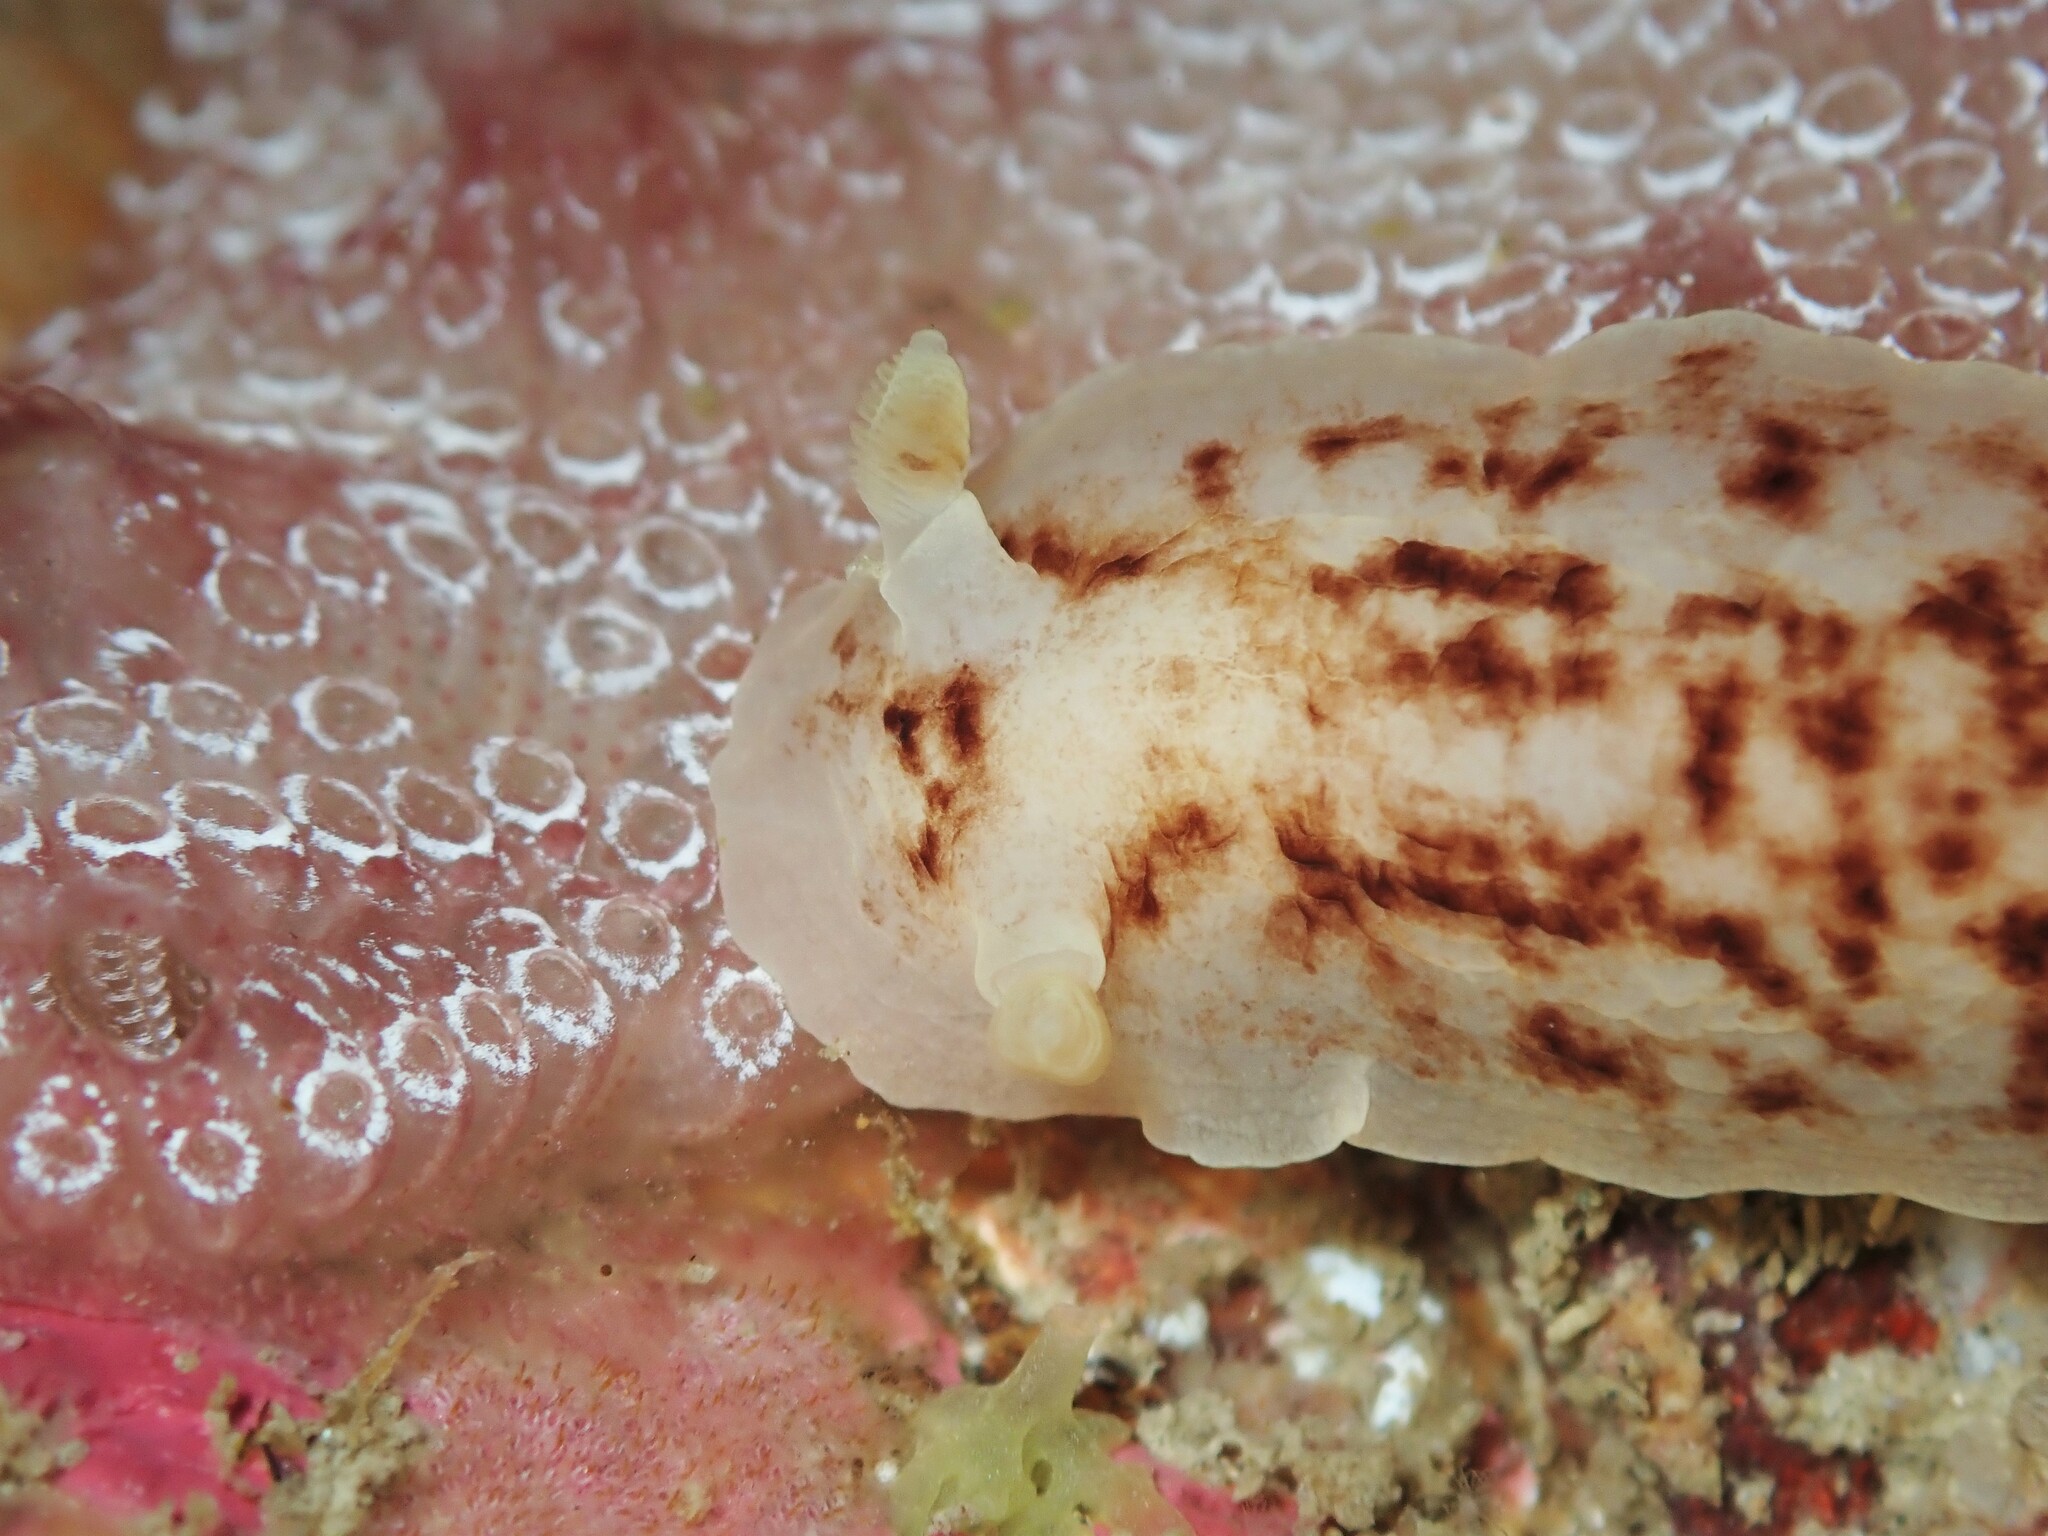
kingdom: Animalia
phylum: Mollusca
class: Gastropoda
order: Nudibranchia
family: Dorididae
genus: Aphelodoris
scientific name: Aphelodoris luctuosa
